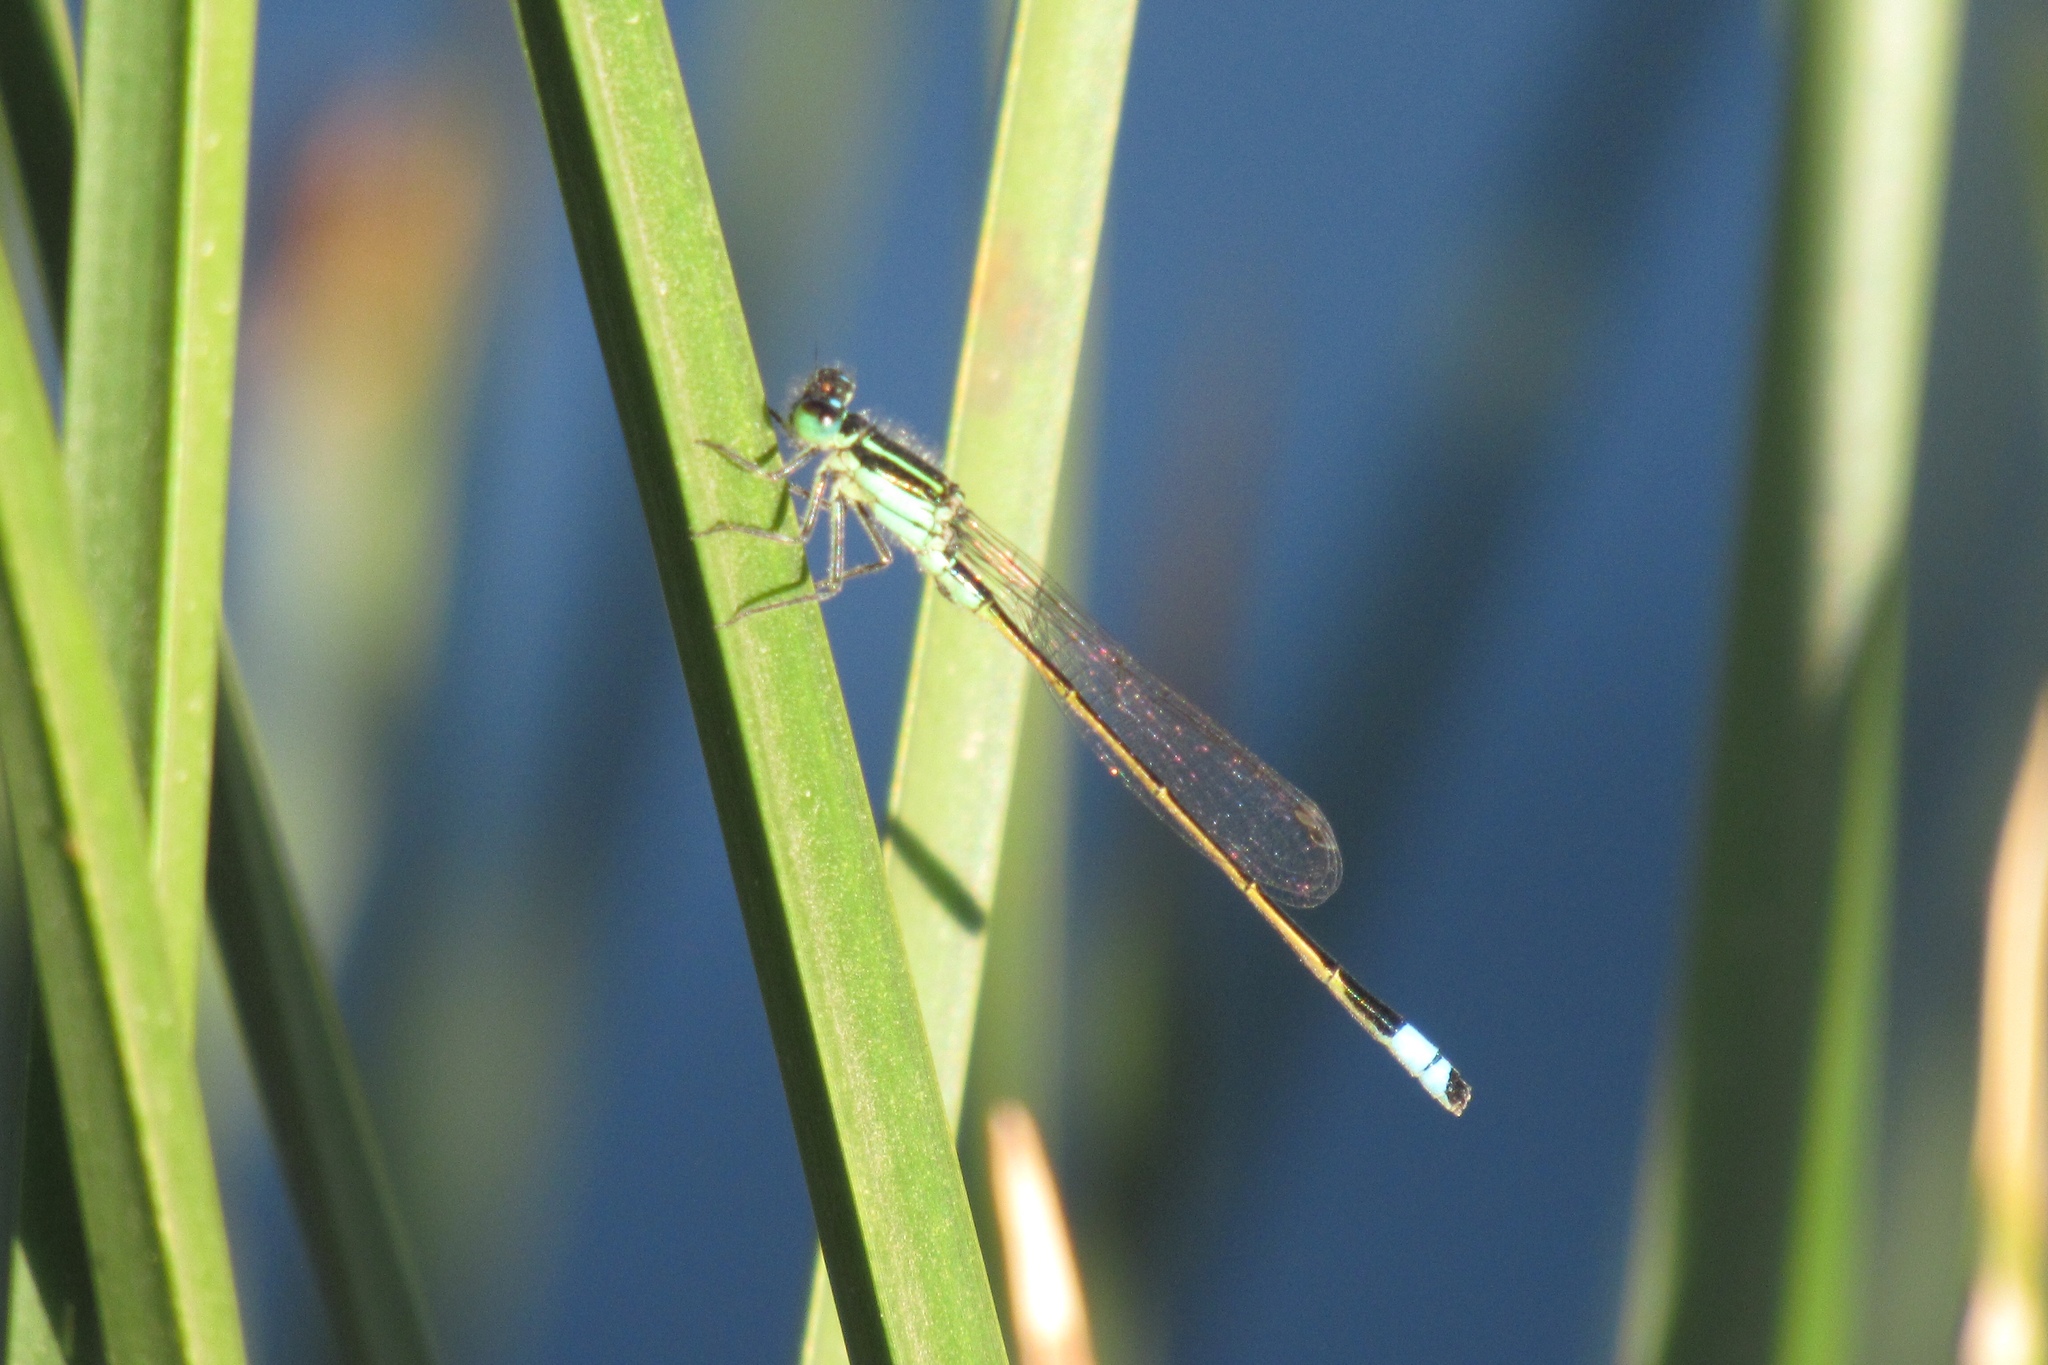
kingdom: Animalia
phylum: Arthropoda
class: Insecta
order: Odonata
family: Coenagrionidae
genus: Ischnura
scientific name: Ischnura ramburii
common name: Rambur's forktail
